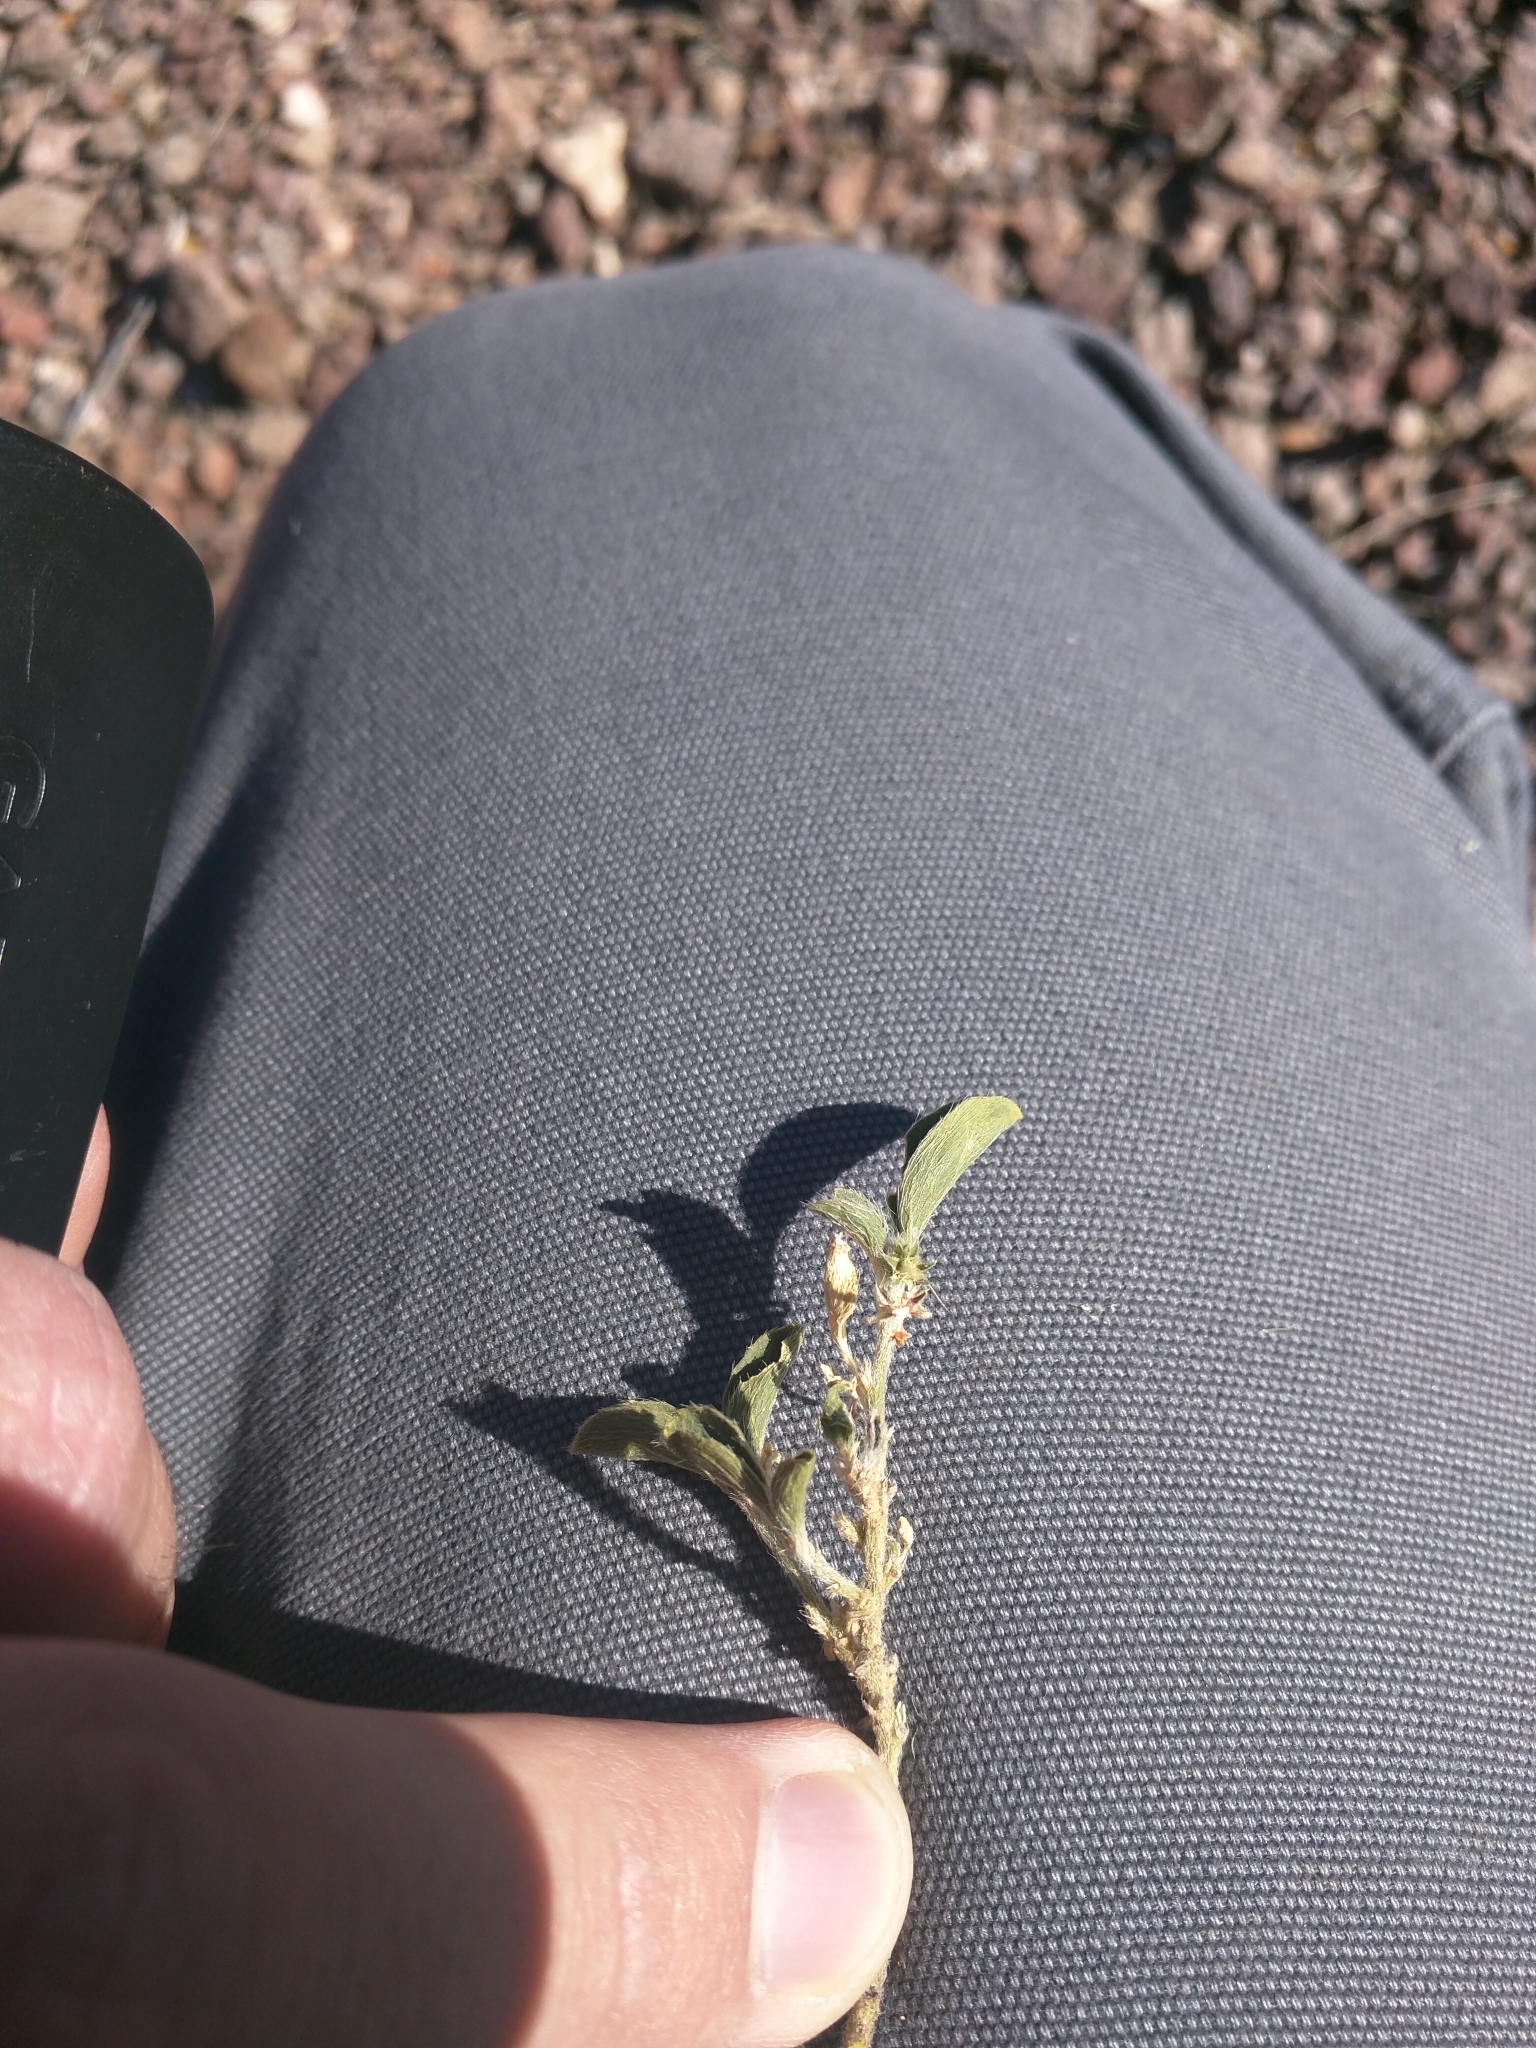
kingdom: Plantae
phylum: Tracheophyta
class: Magnoliopsida
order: Malpighiales
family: Euphorbiaceae
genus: Ditaxis
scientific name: Ditaxis serrata
